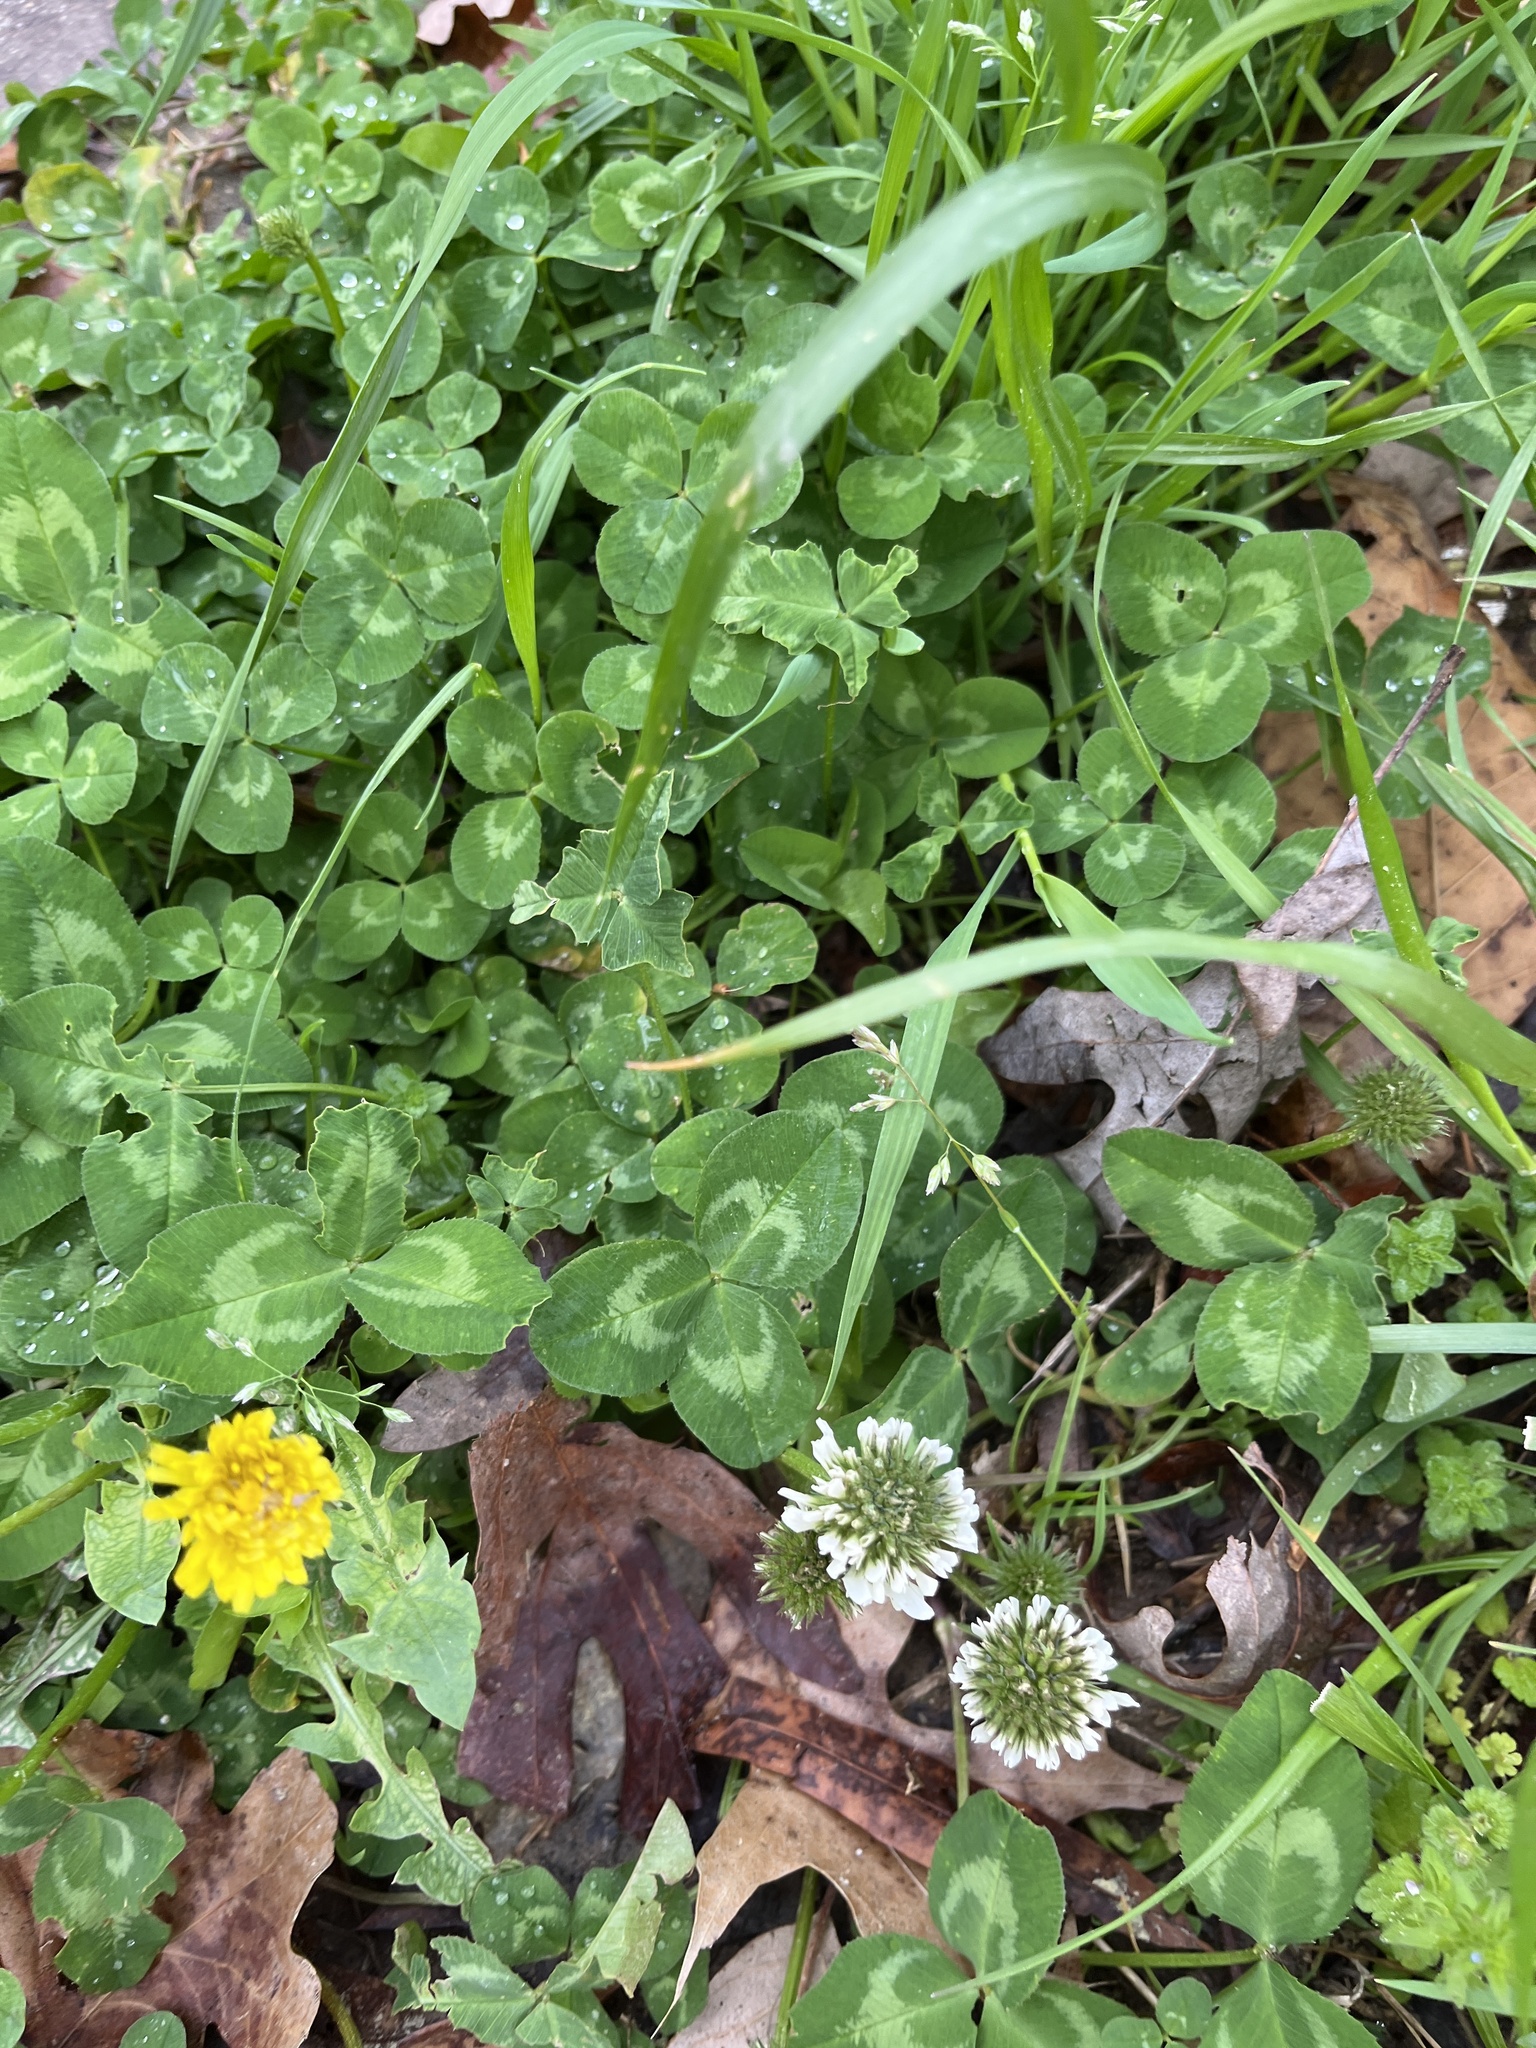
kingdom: Plantae
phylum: Tracheophyta
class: Magnoliopsida
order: Fabales
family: Fabaceae
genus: Trifolium
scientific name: Trifolium repens
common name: White clover
